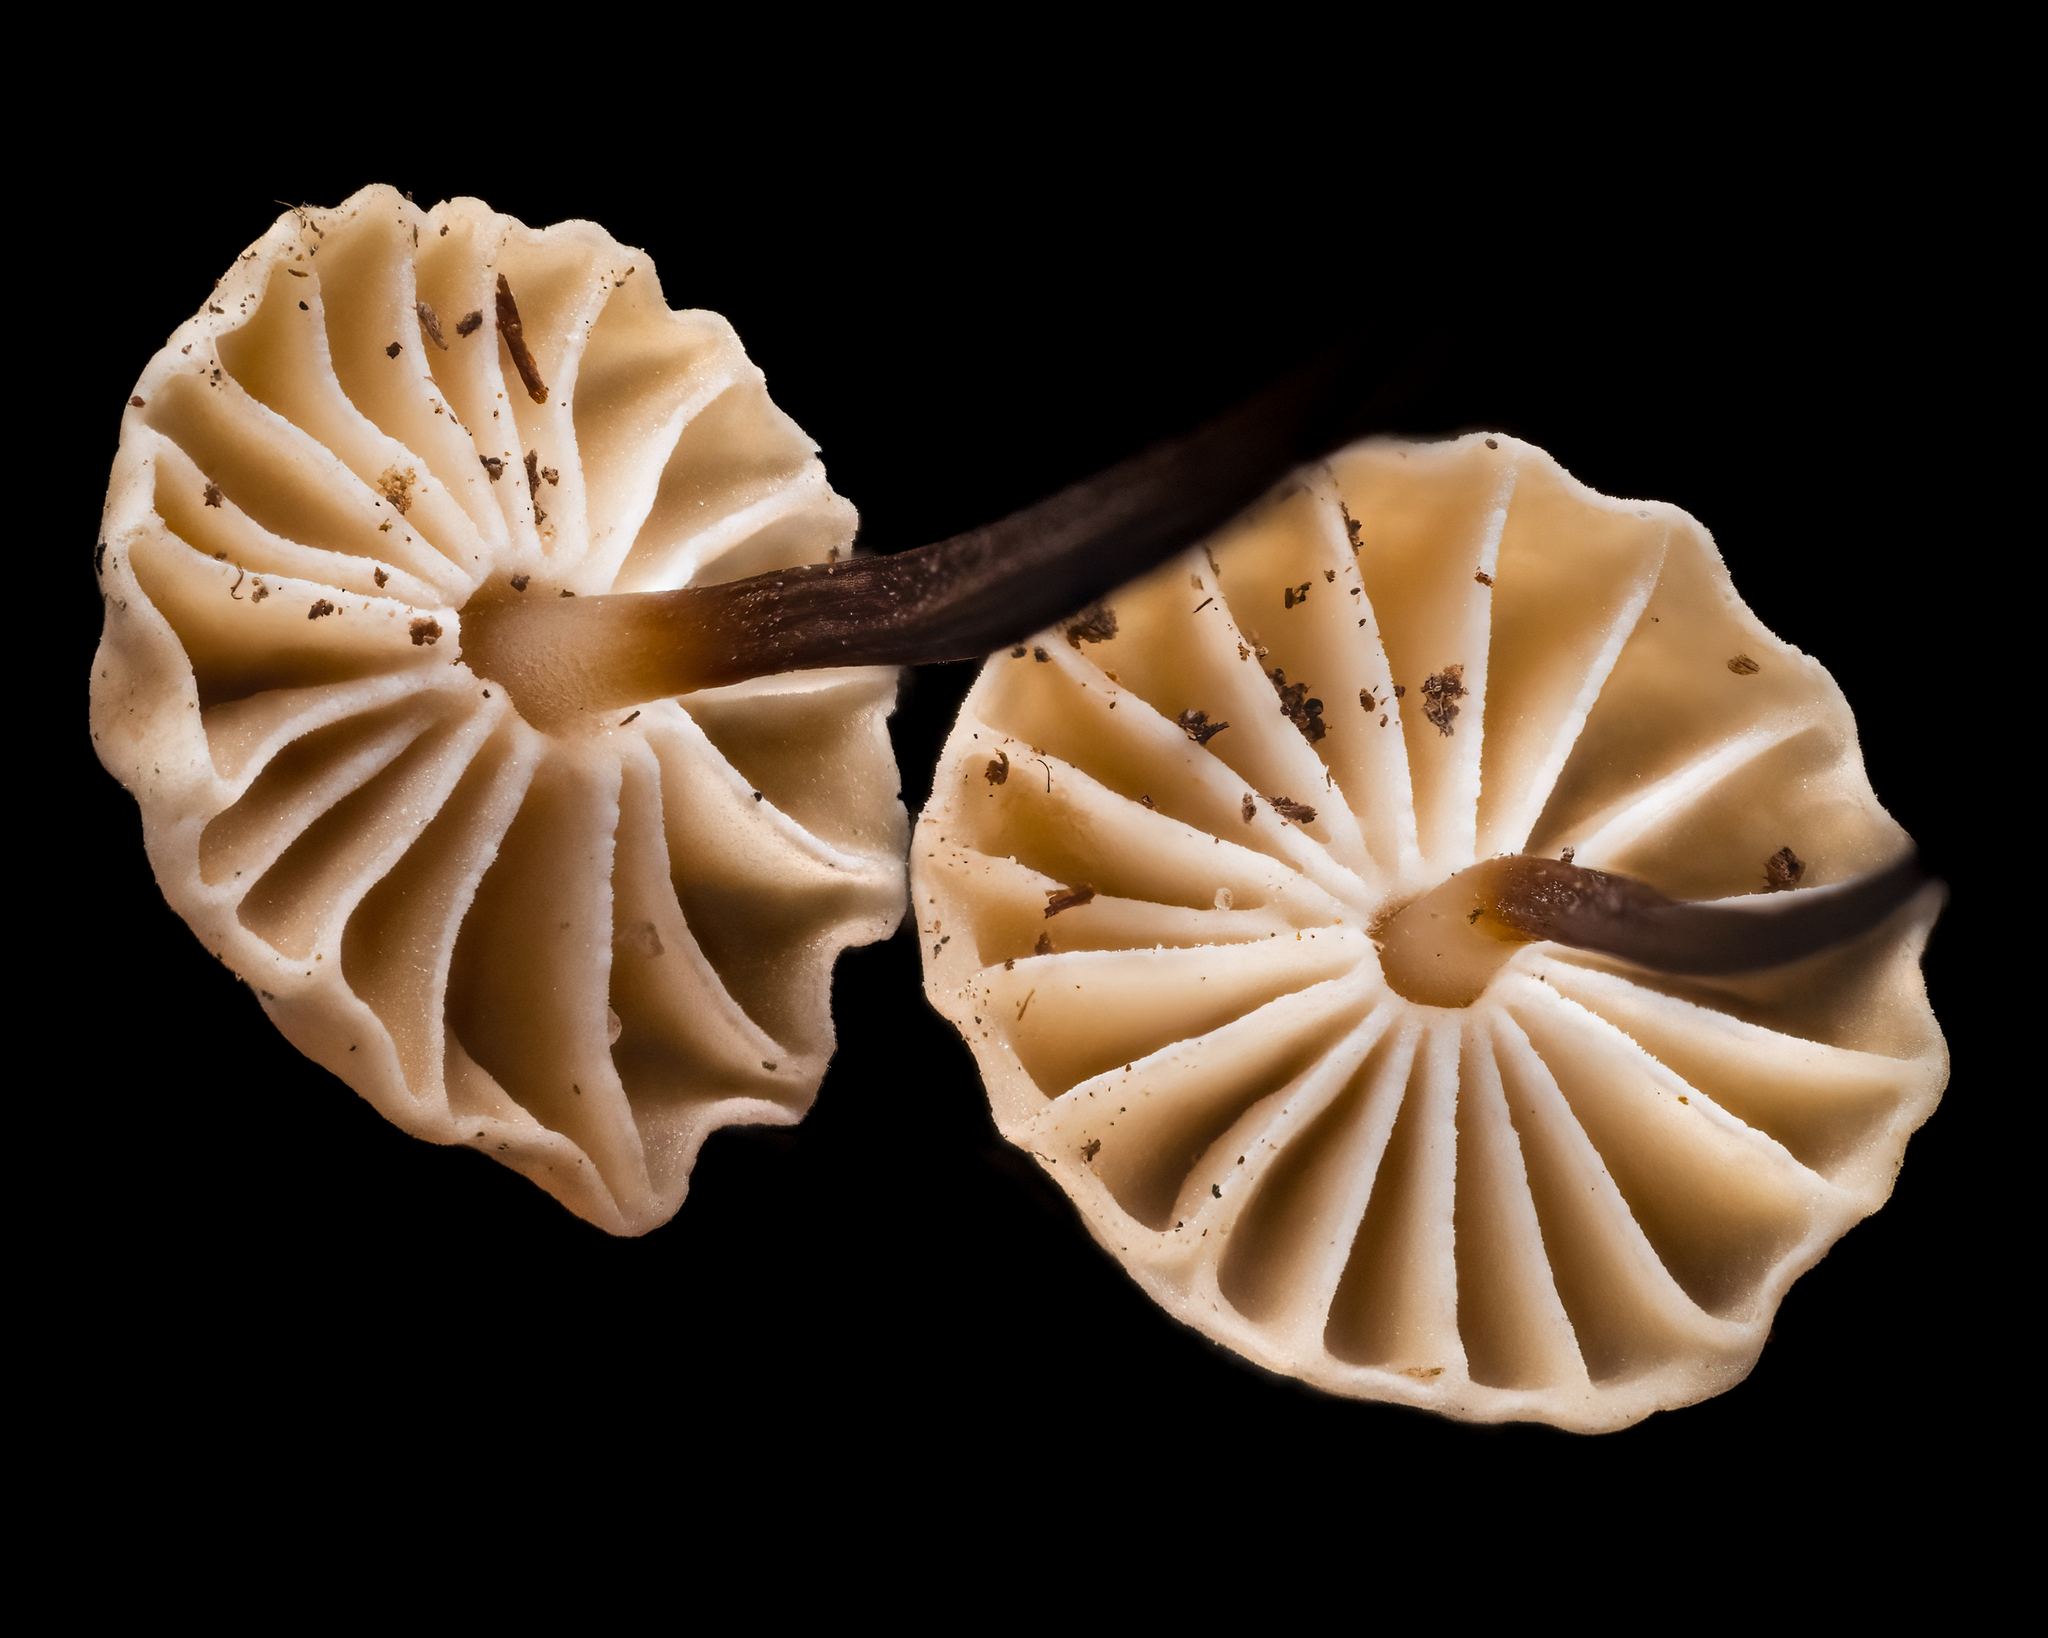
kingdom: Fungi
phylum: Basidiomycota
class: Agaricomycetes
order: Agaricales
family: Marasmiaceae
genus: Marasmius
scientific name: Marasmius rotula
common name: Collared parachute
